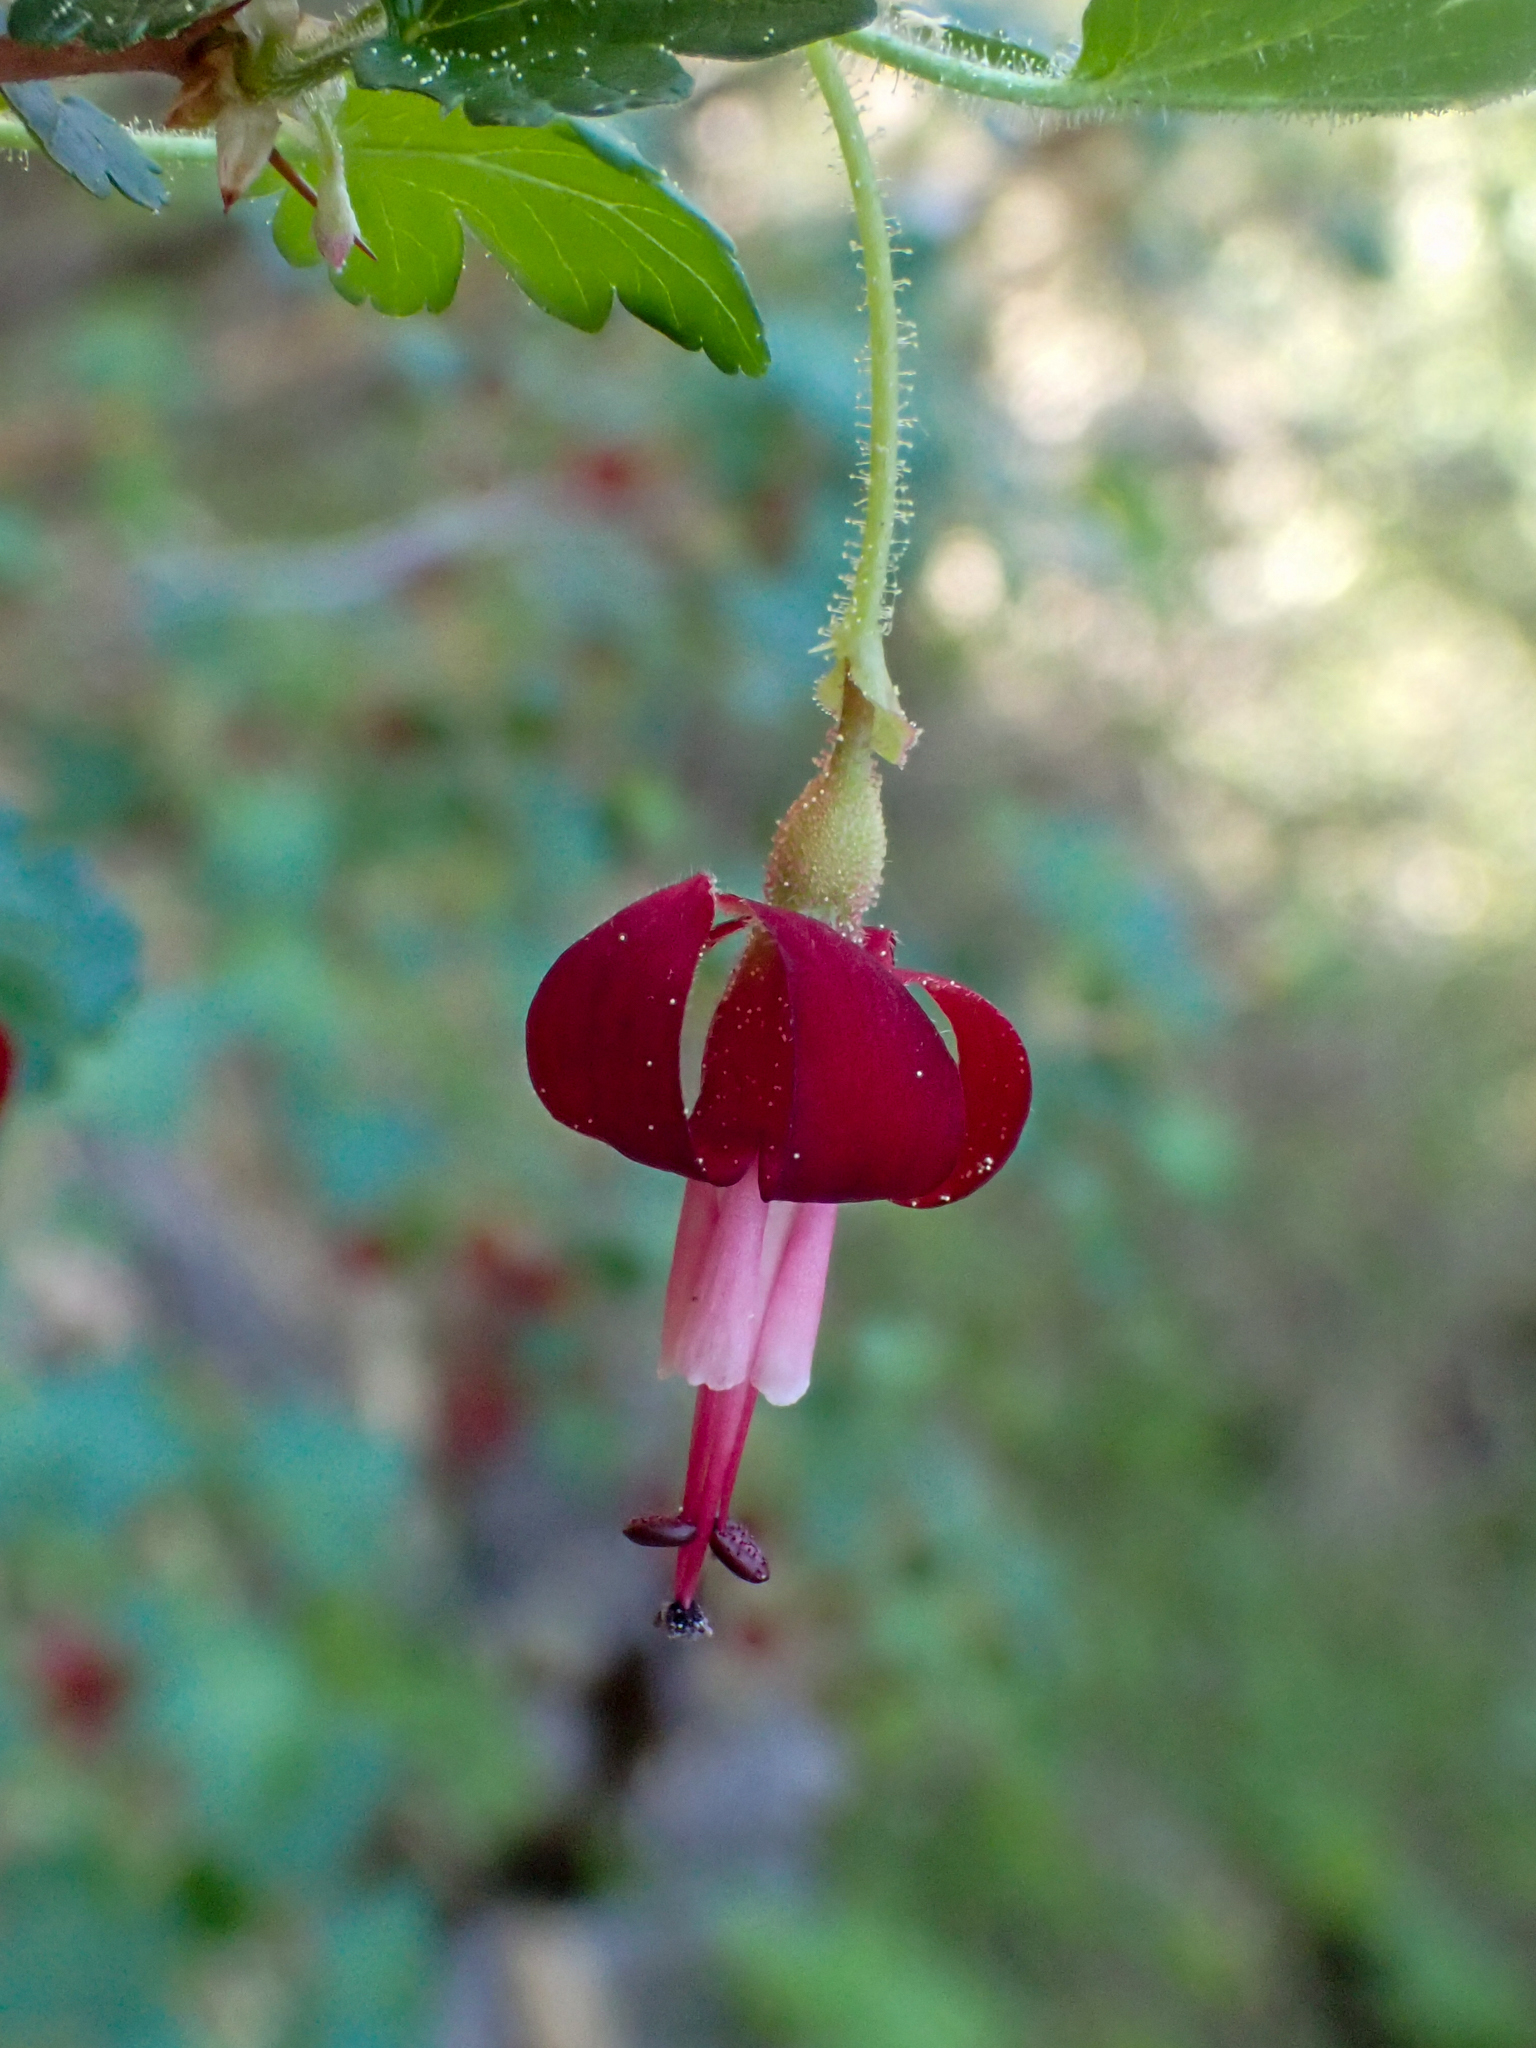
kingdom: Plantae
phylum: Tracheophyta
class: Magnoliopsida
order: Saxifragales
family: Grossulariaceae
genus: Ribes
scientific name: Ribes lobbii
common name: Gummy gooseberry
